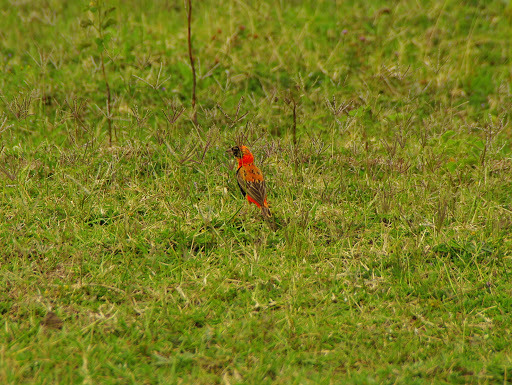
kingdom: Animalia
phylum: Chordata
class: Aves
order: Passeriformes
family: Ploceidae
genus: Euplectes
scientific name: Euplectes orix
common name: Southern red bishop
